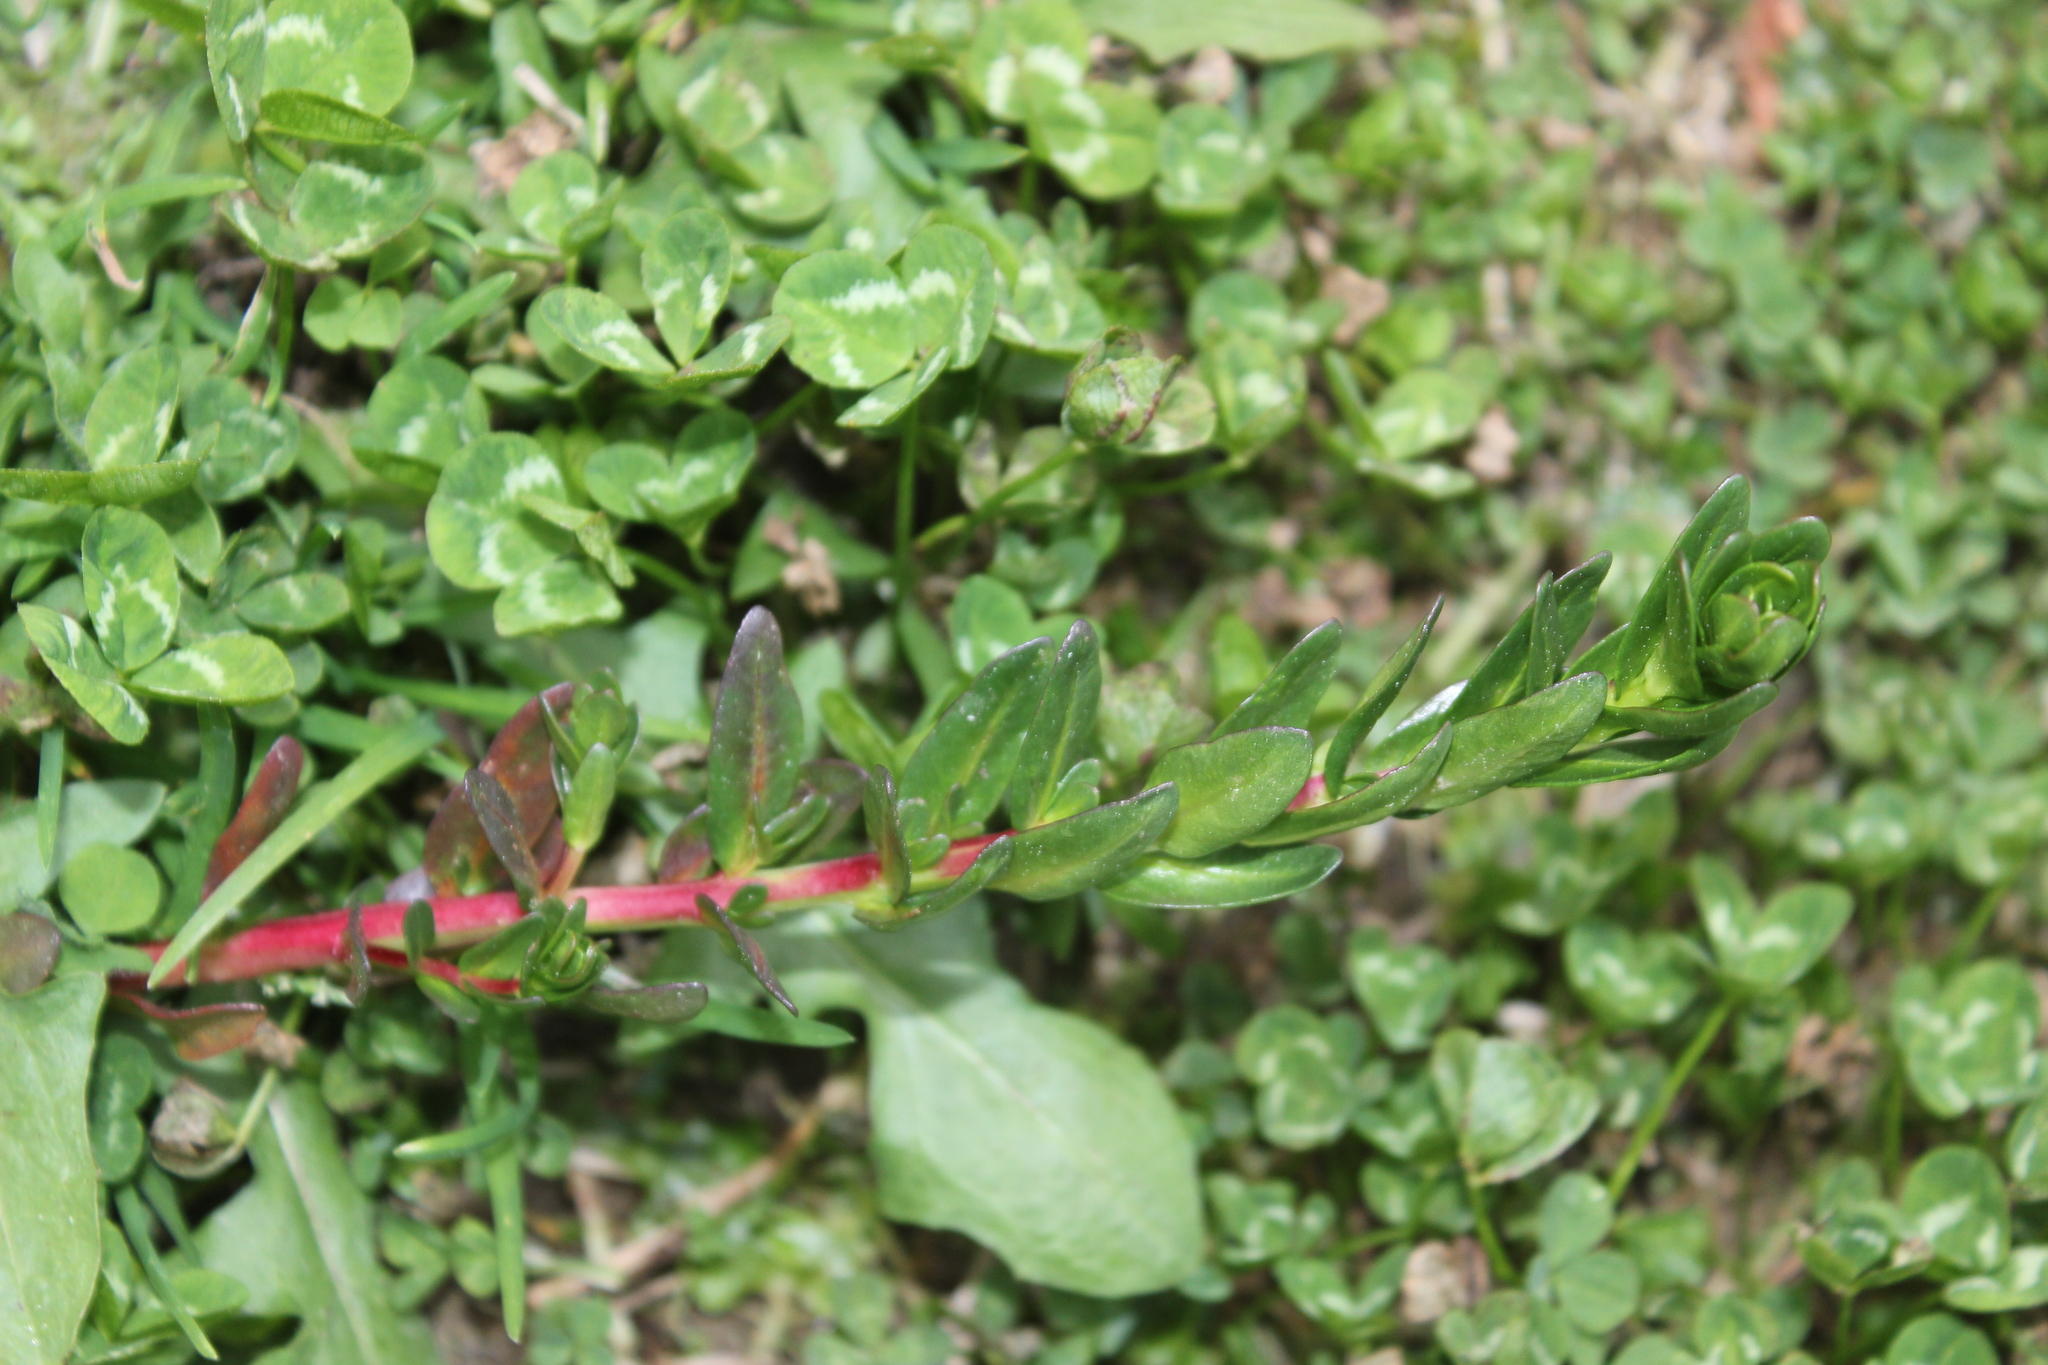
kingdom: Plantae
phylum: Tracheophyta
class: Magnoliopsida
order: Myrtales
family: Lythraceae
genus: Lythrum
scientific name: Lythrum hyssopifolia
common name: Grass-poly
